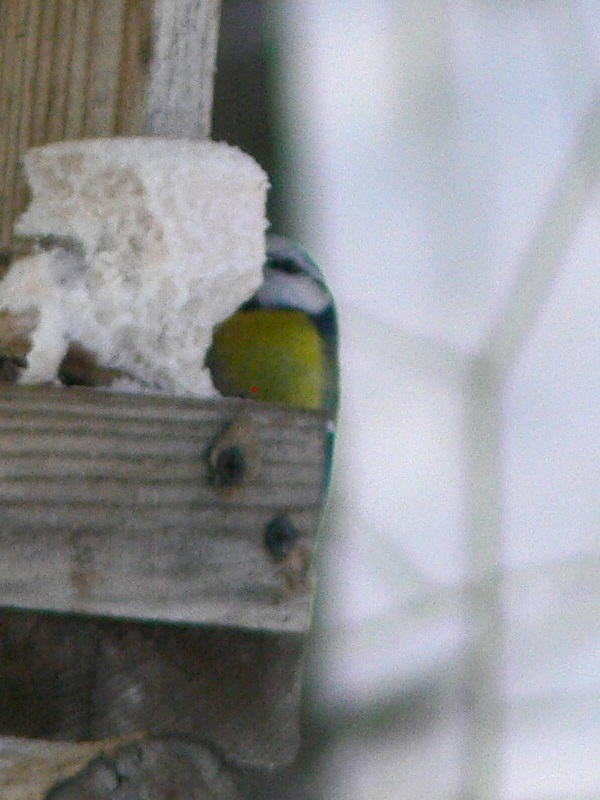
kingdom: Animalia
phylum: Chordata
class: Aves
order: Passeriformes
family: Paridae
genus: Cyanistes
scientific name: Cyanistes caeruleus
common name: Eurasian blue tit
